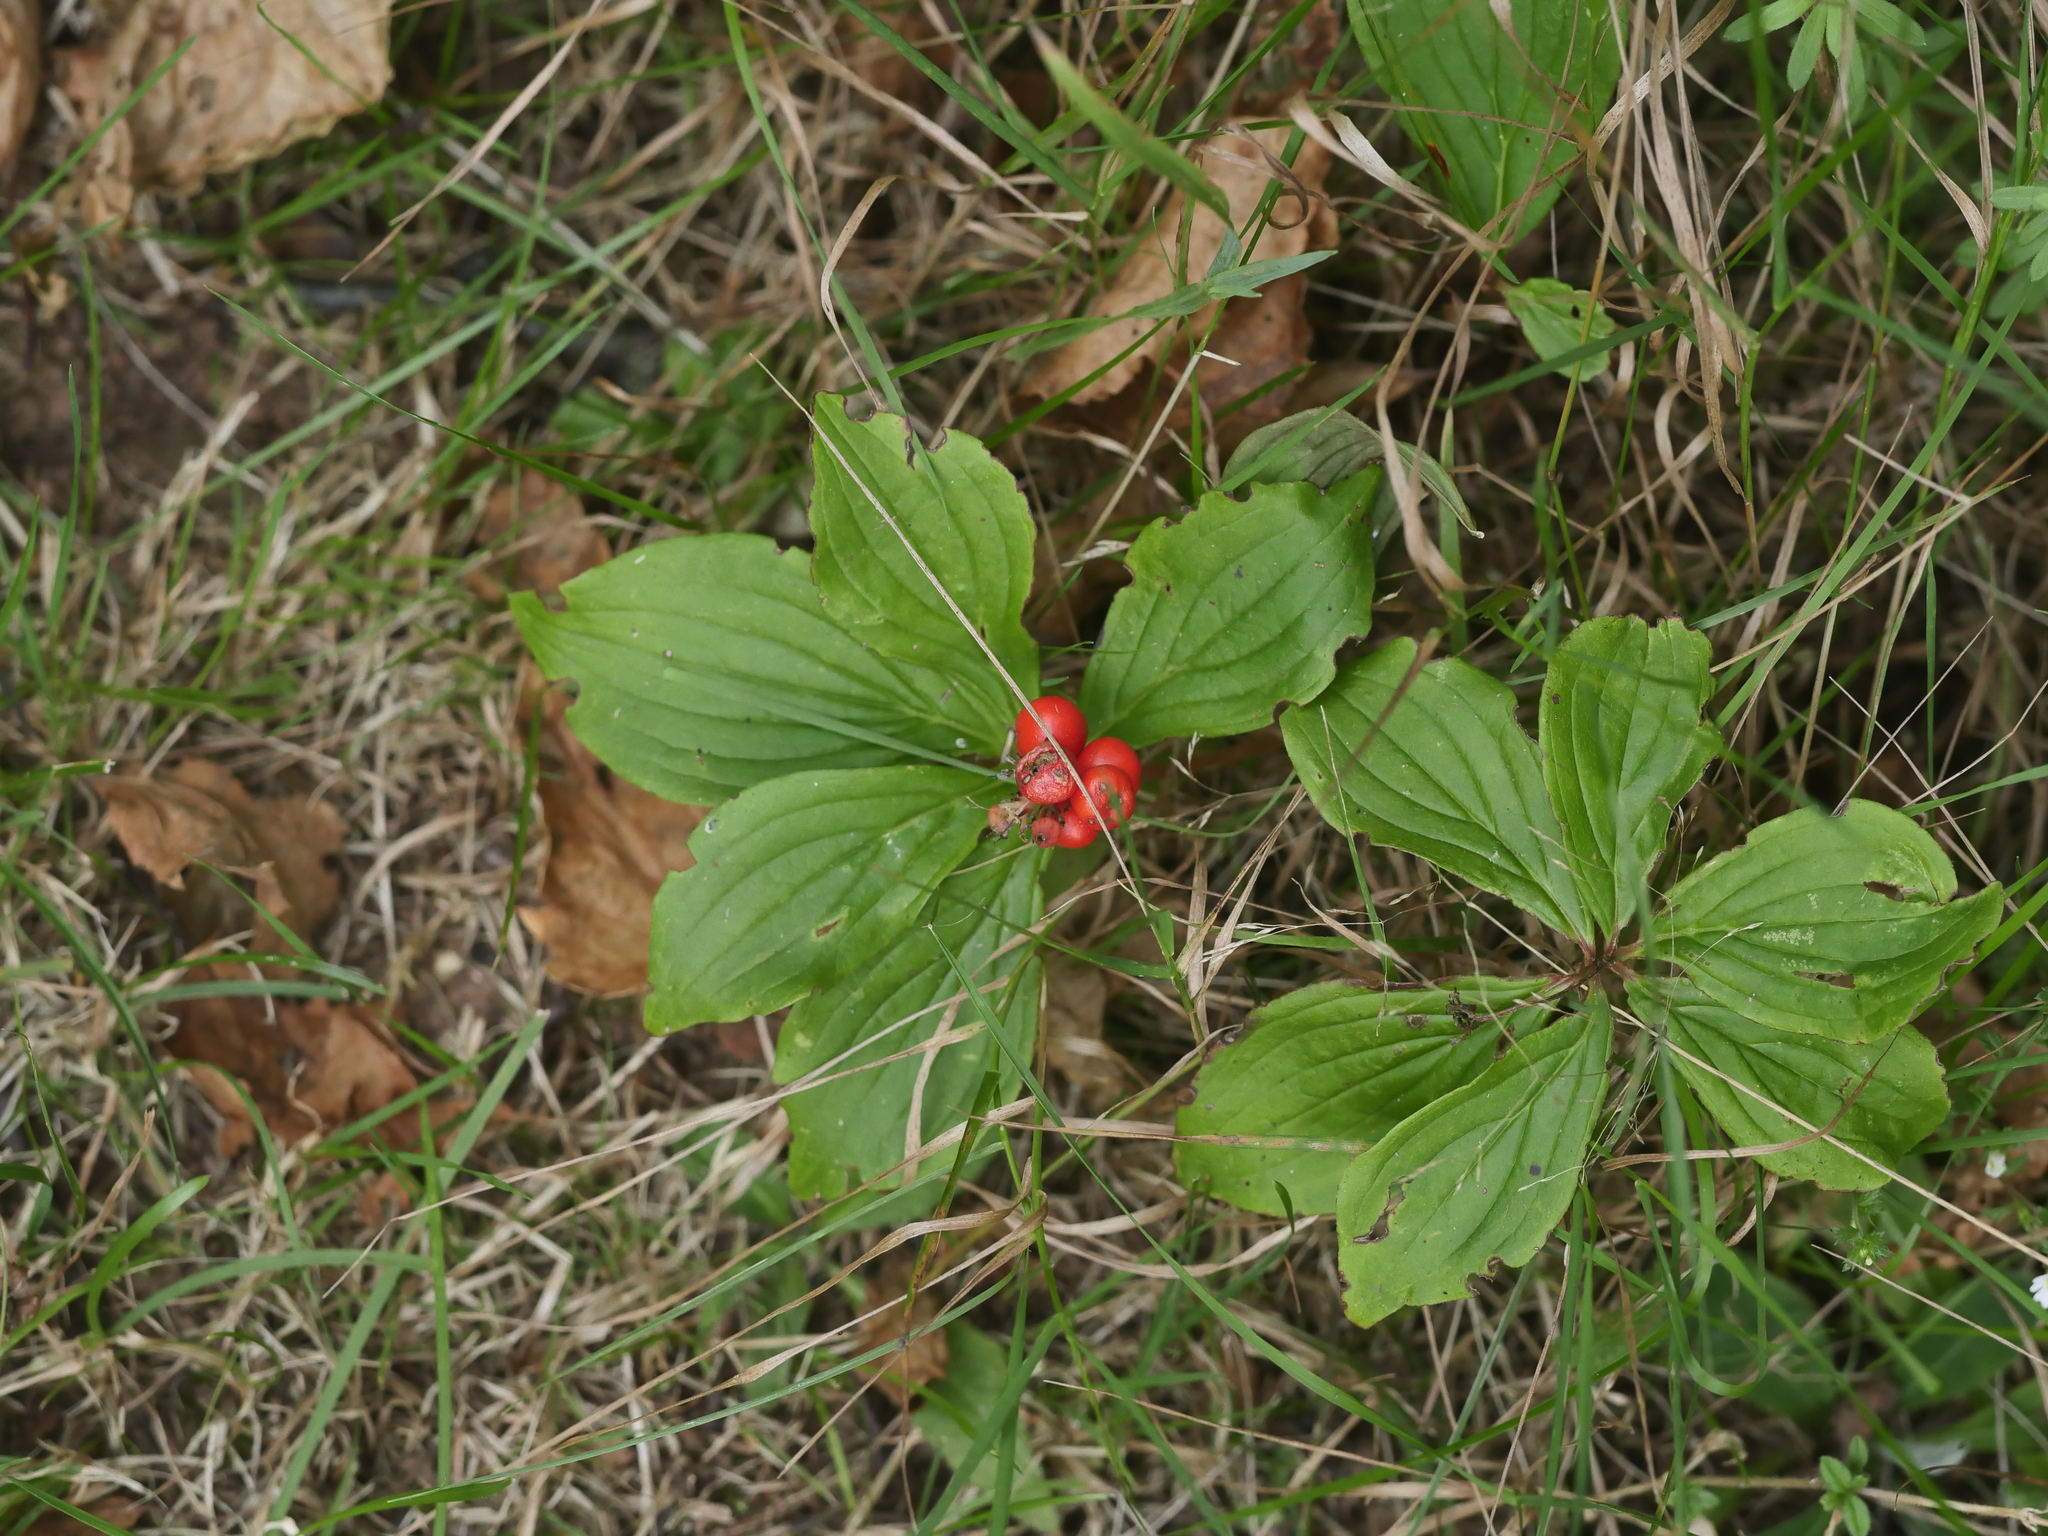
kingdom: Plantae
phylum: Tracheophyta
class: Magnoliopsida
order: Cornales
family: Cornaceae
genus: Cornus
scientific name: Cornus canadensis
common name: Creeping dogwood
